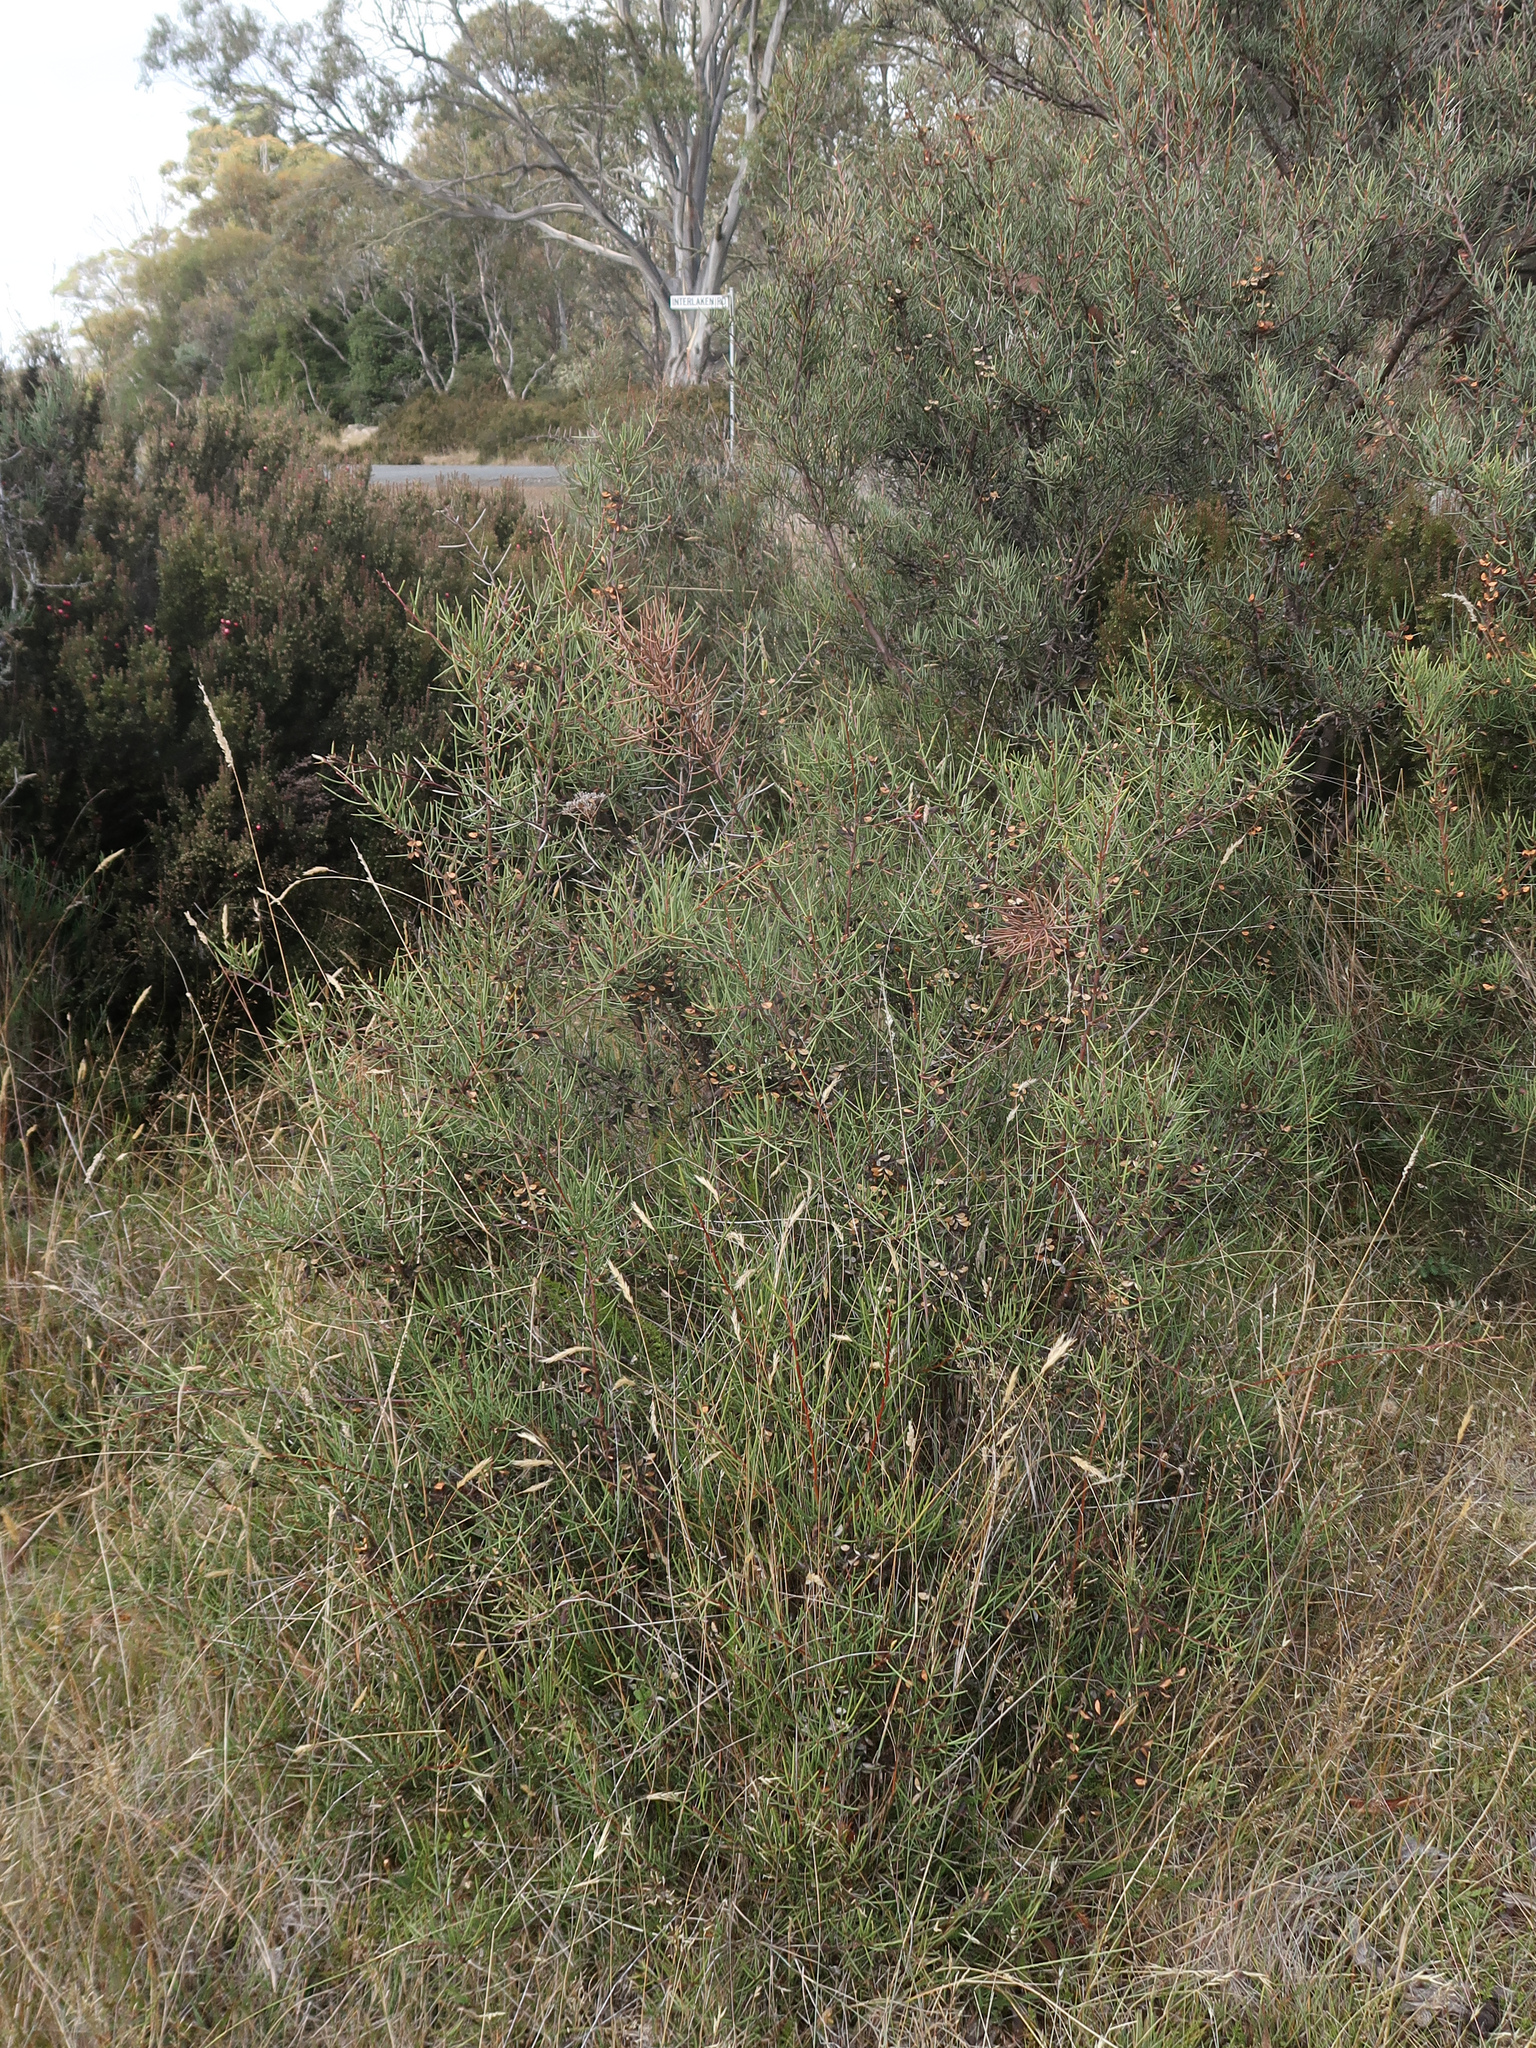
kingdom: Plantae
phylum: Tracheophyta
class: Magnoliopsida
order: Proteales
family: Proteaceae
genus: Hakea
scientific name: Hakea microcarpa
